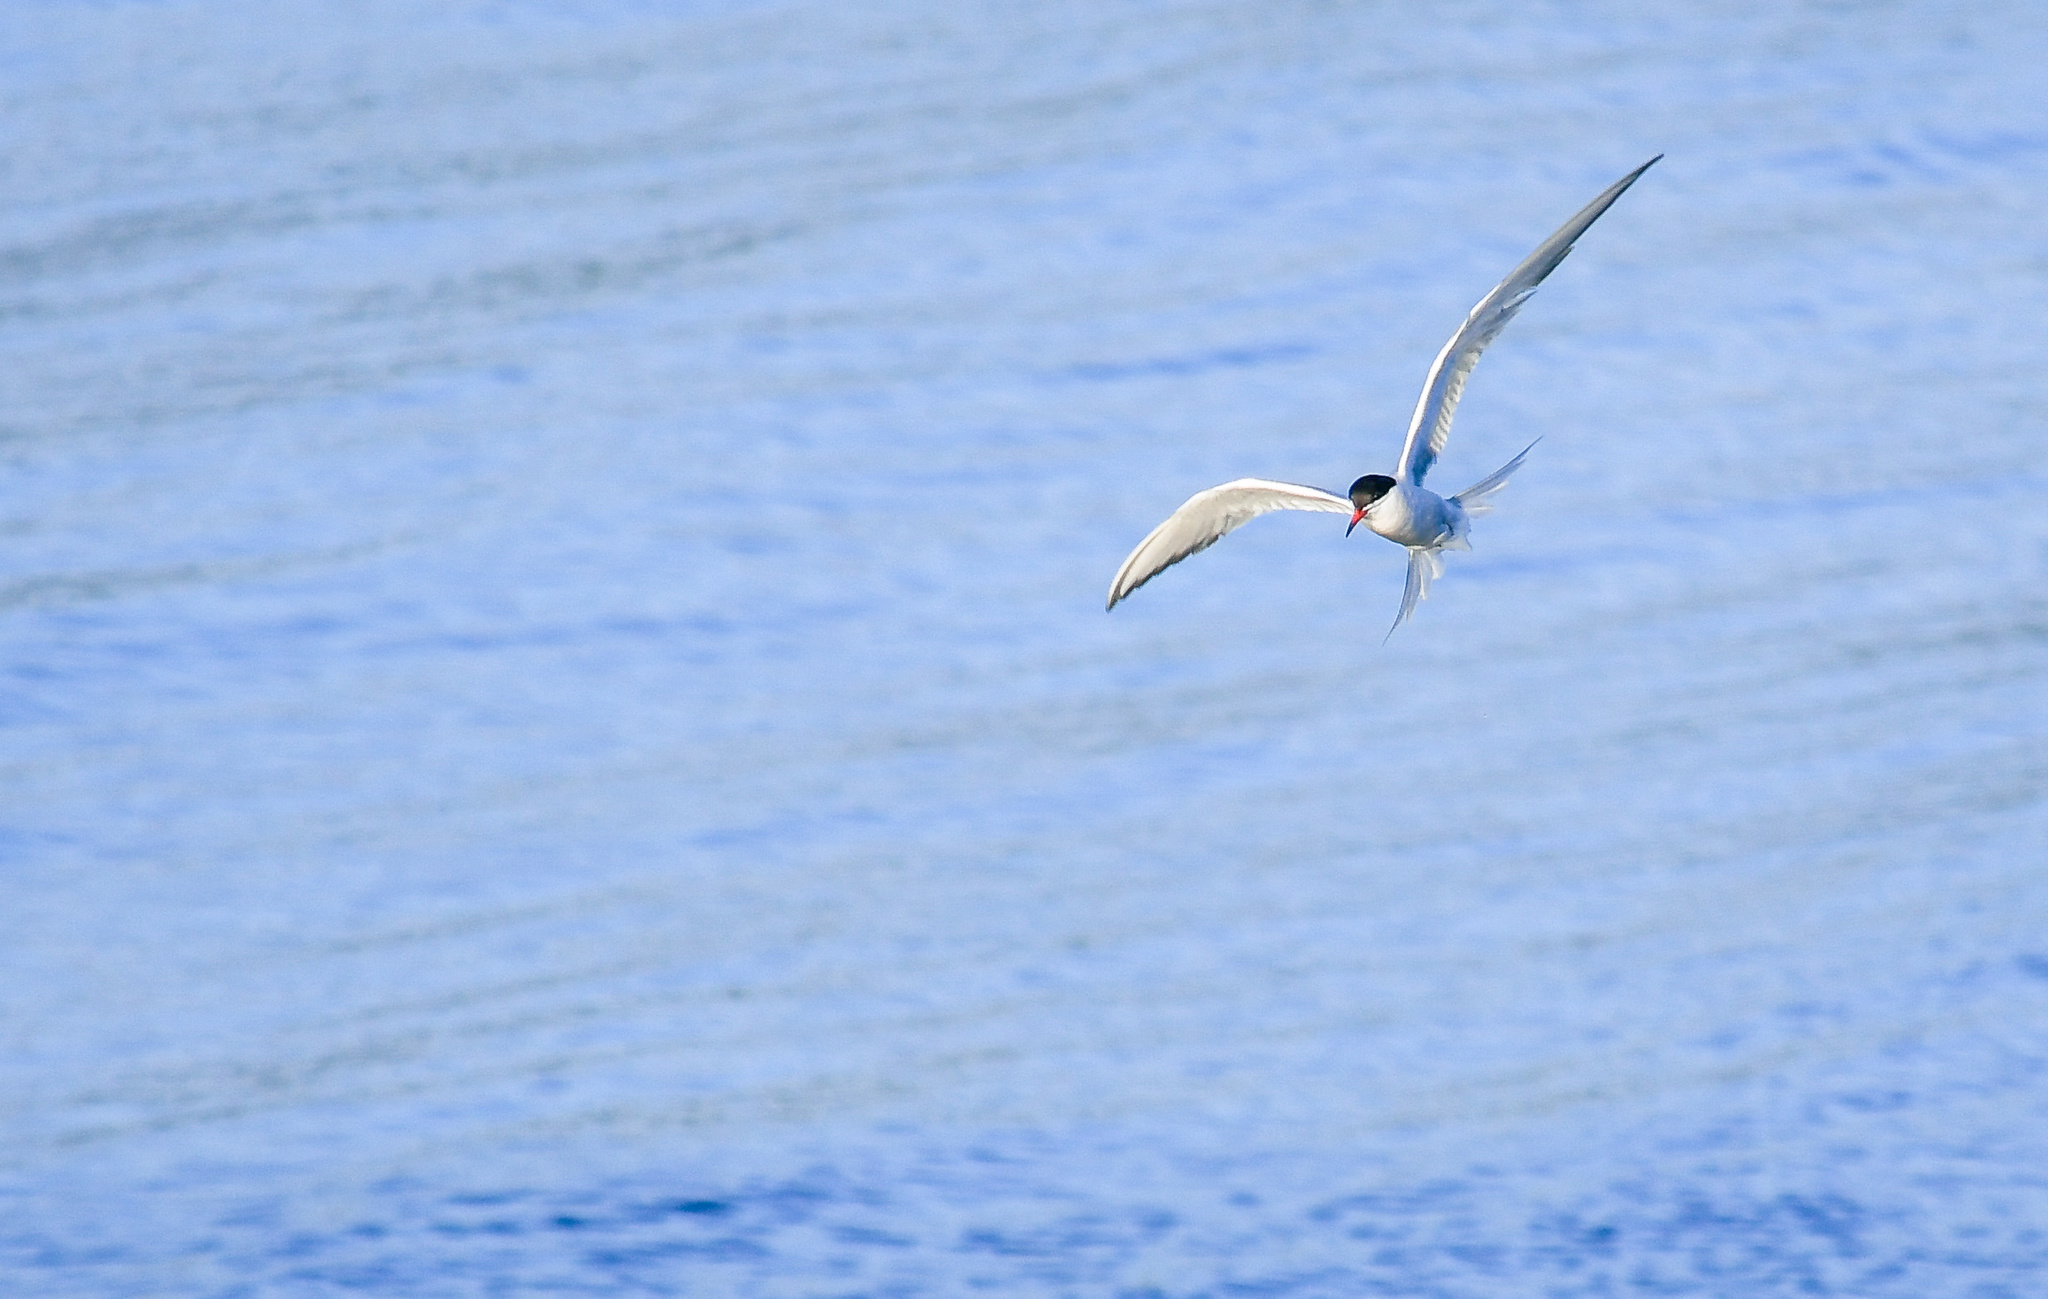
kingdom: Animalia
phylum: Chordata
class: Aves
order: Charadriiformes
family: Laridae
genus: Sterna
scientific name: Sterna hirundo
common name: Common tern
